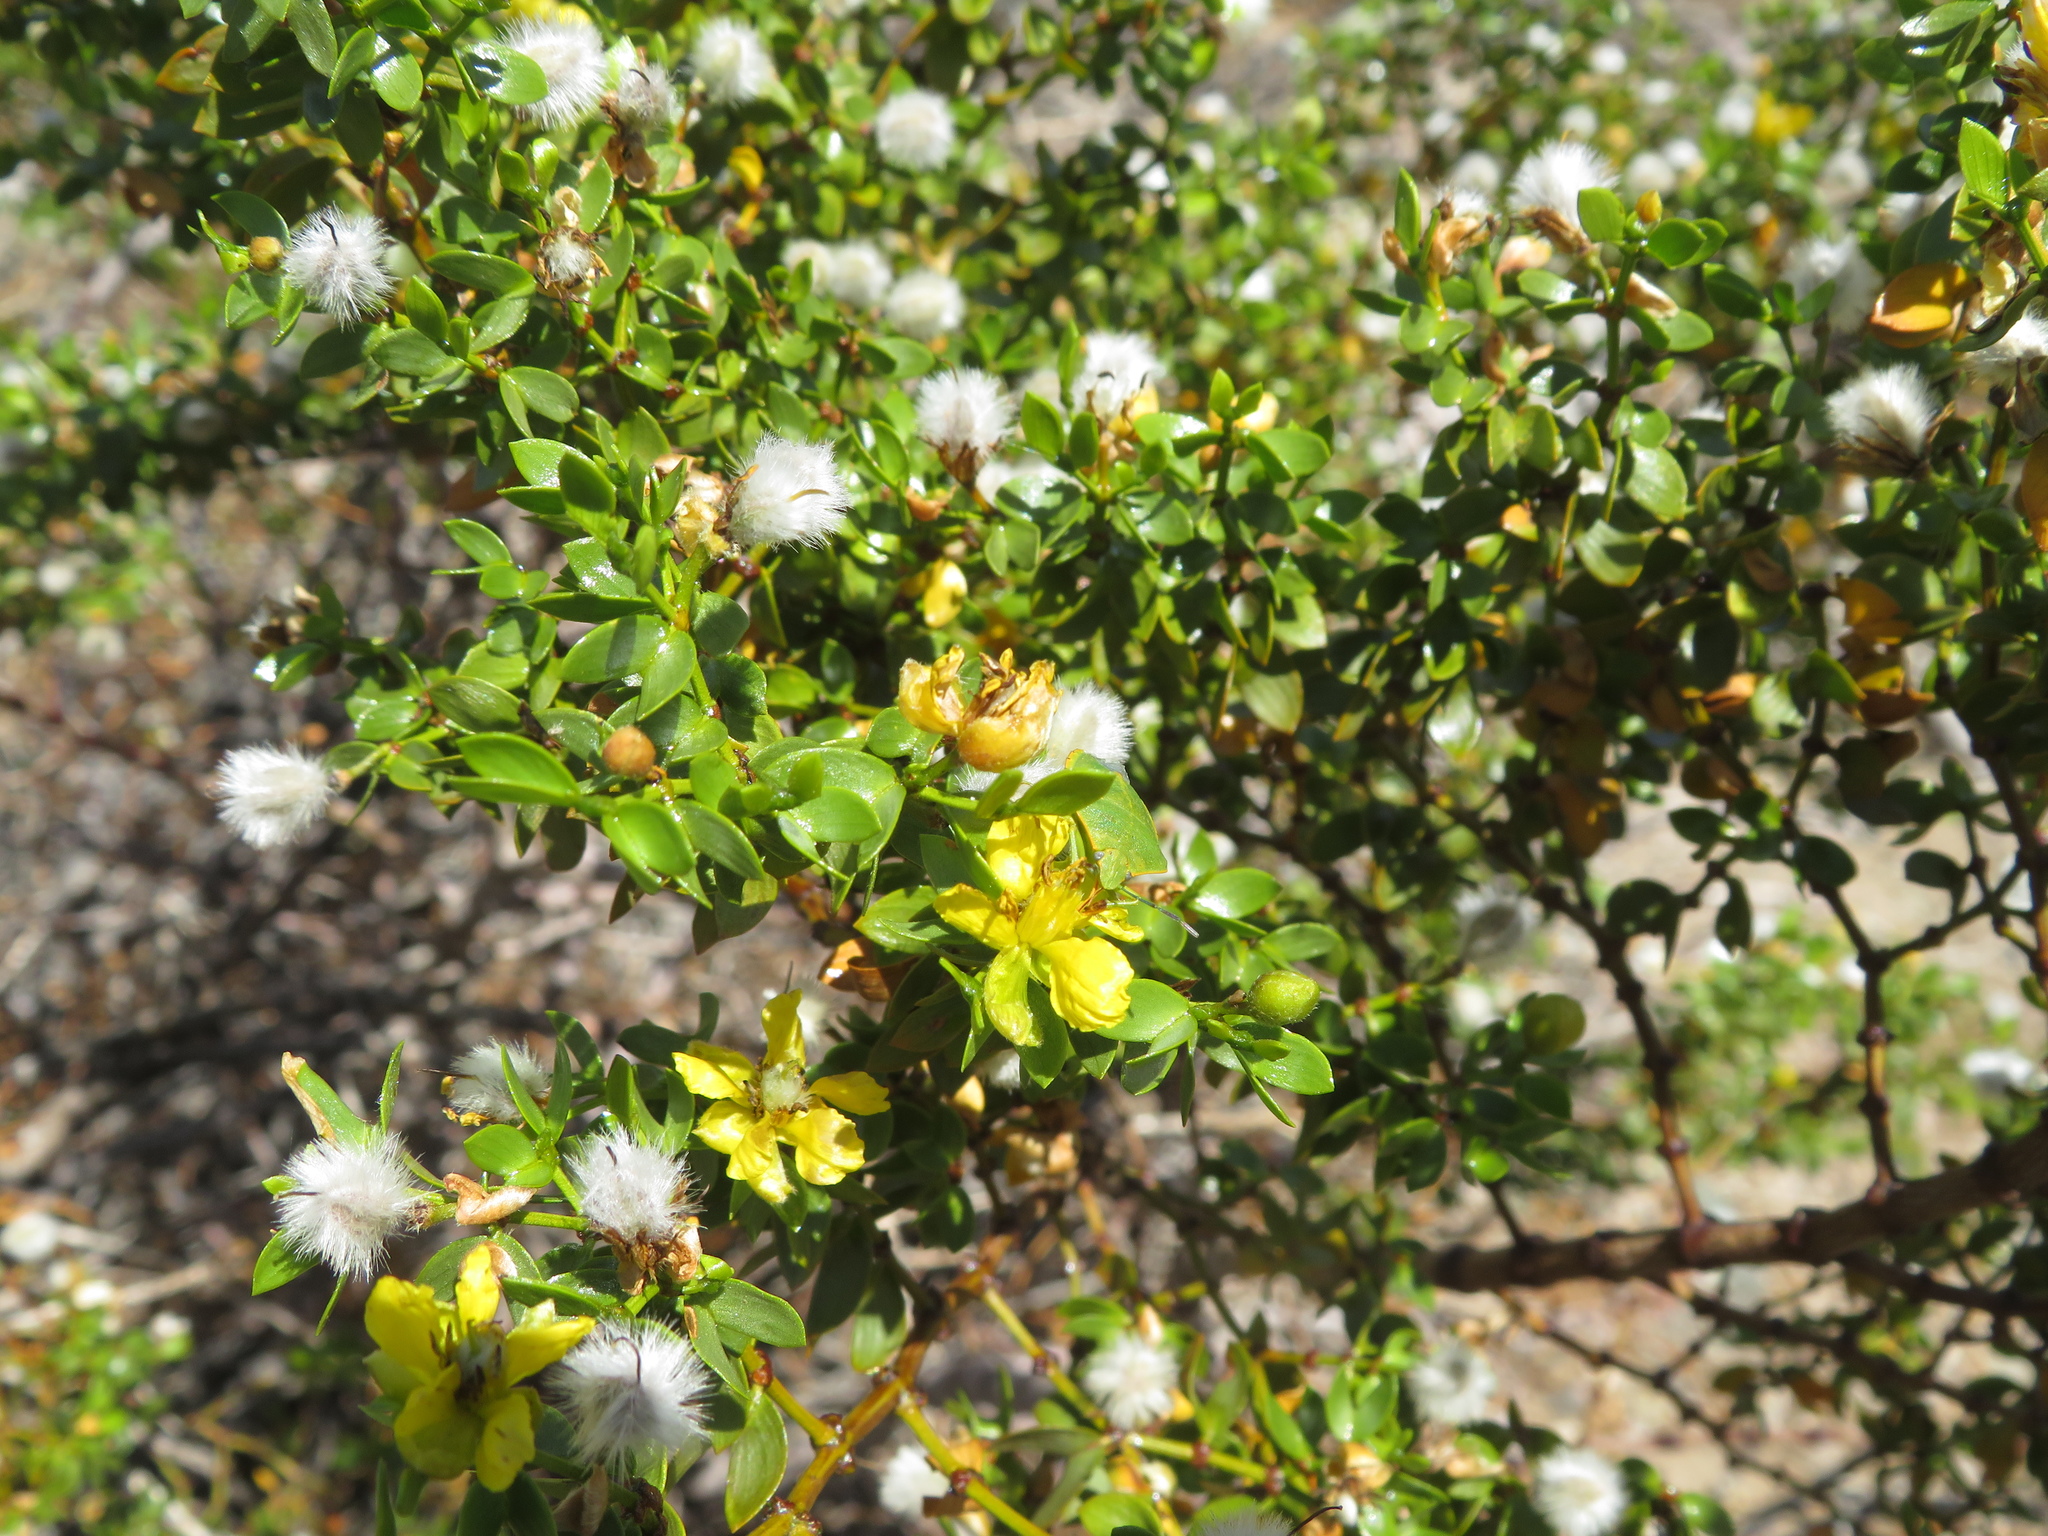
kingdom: Plantae
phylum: Tracheophyta
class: Magnoliopsida
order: Zygophyllales
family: Zygophyllaceae
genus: Larrea
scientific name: Larrea divaricata
